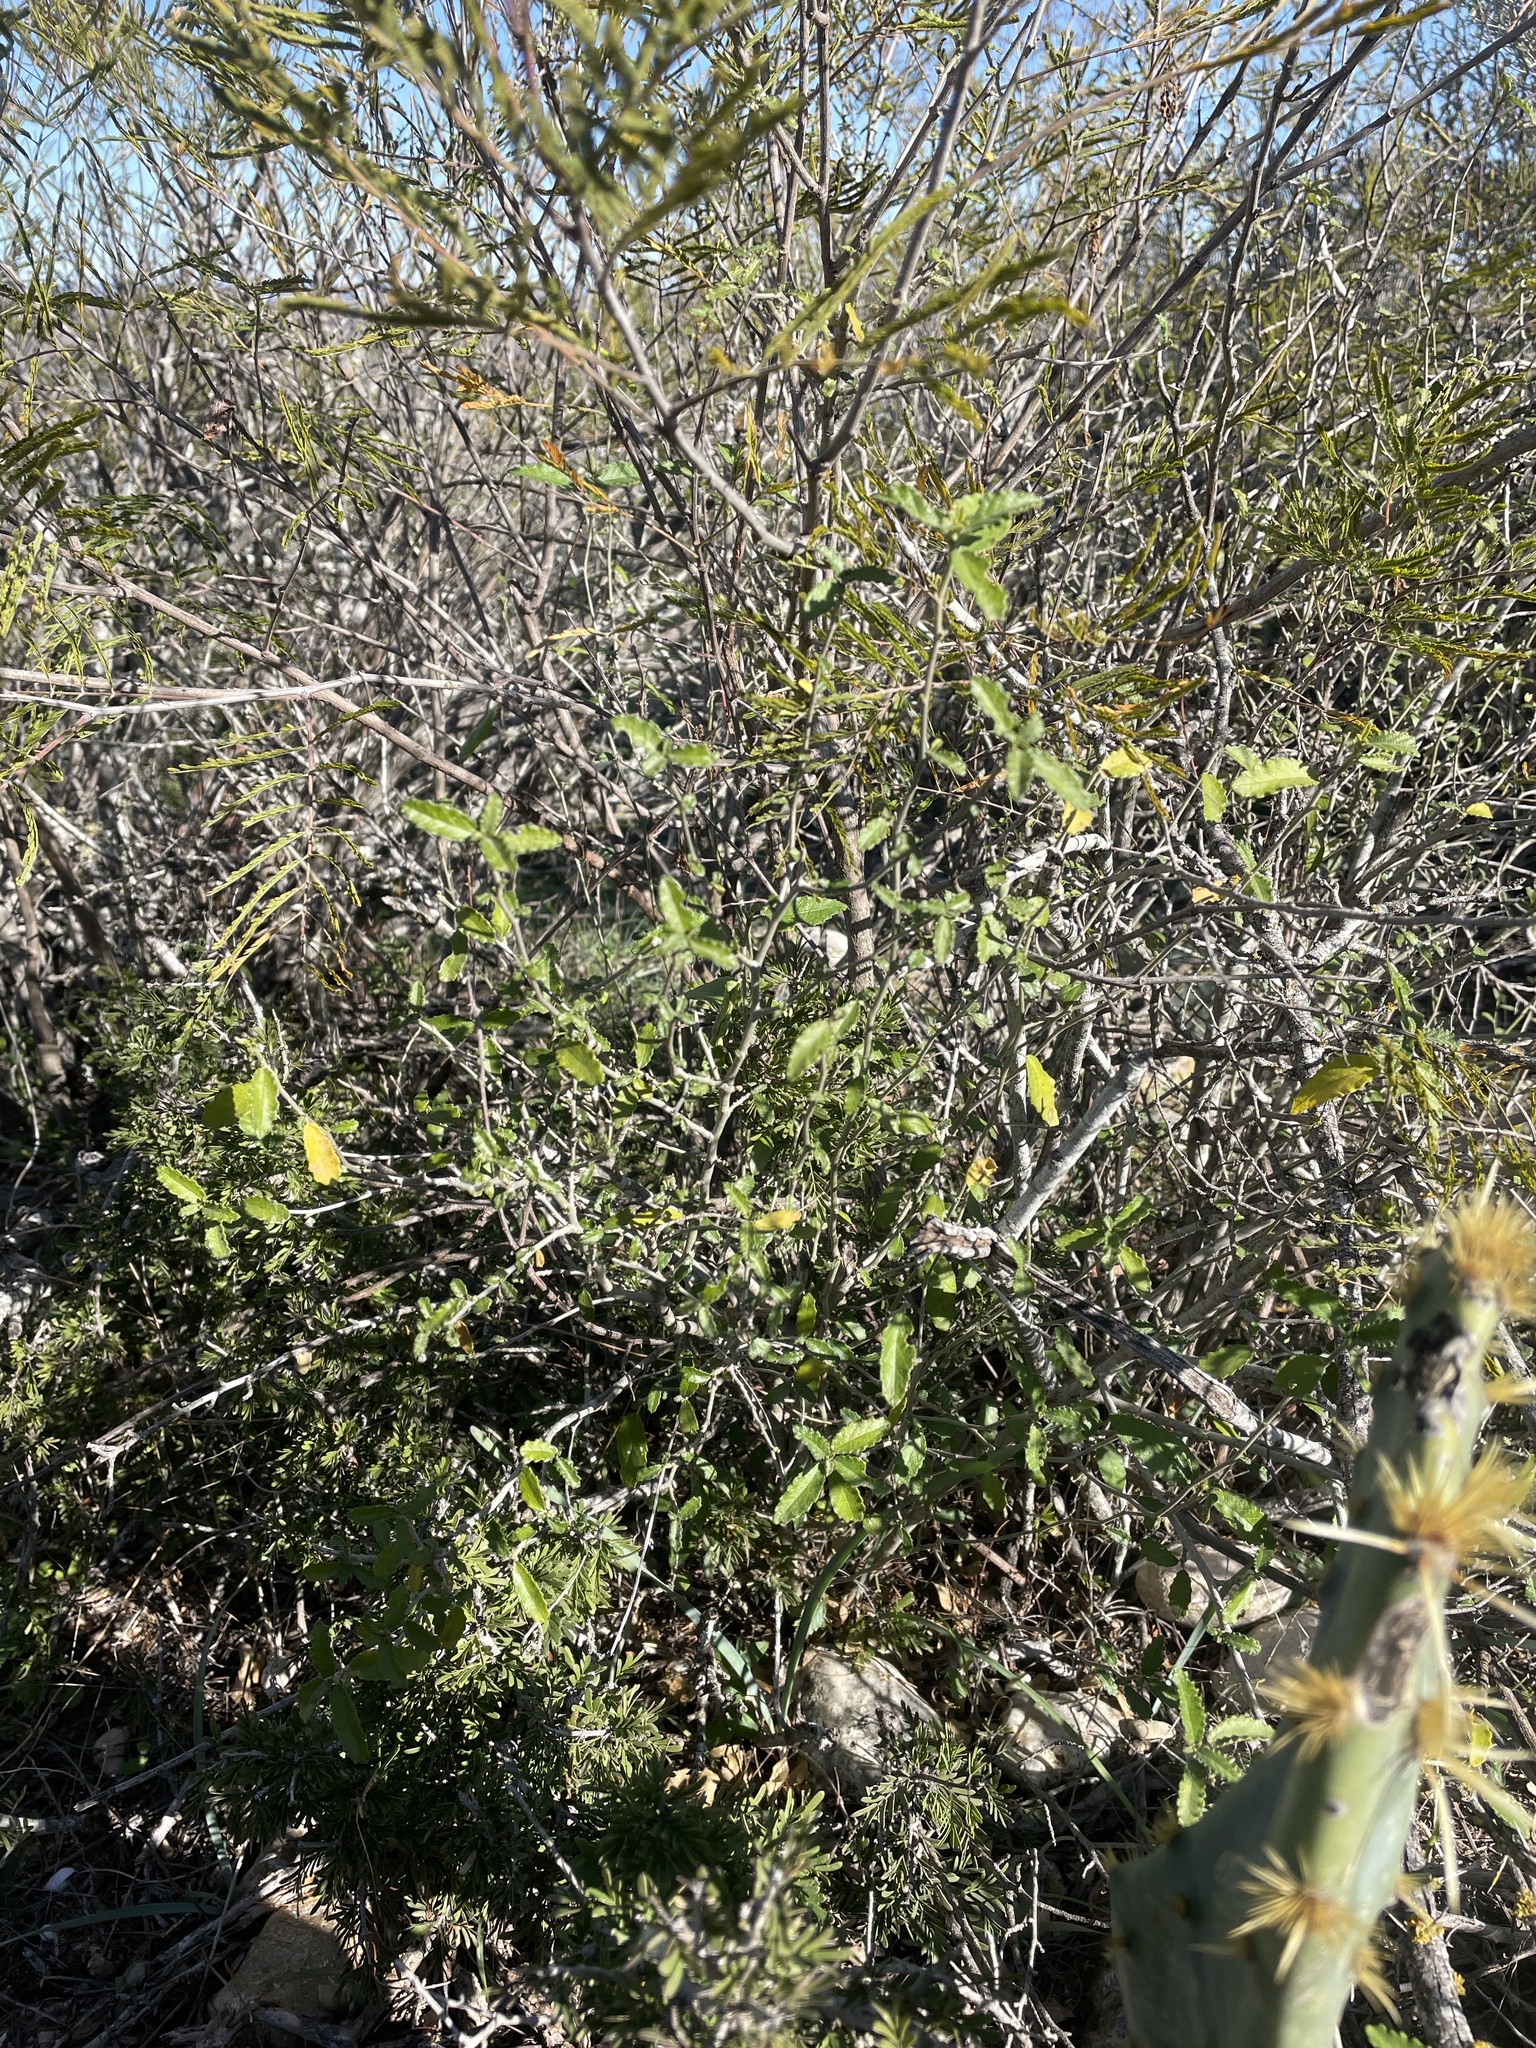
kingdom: Plantae
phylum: Tracheophyta
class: Magnoliopsida
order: Malpighiales
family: Euphorbiaceae
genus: Bernardia
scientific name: Bernardia myricifolia
